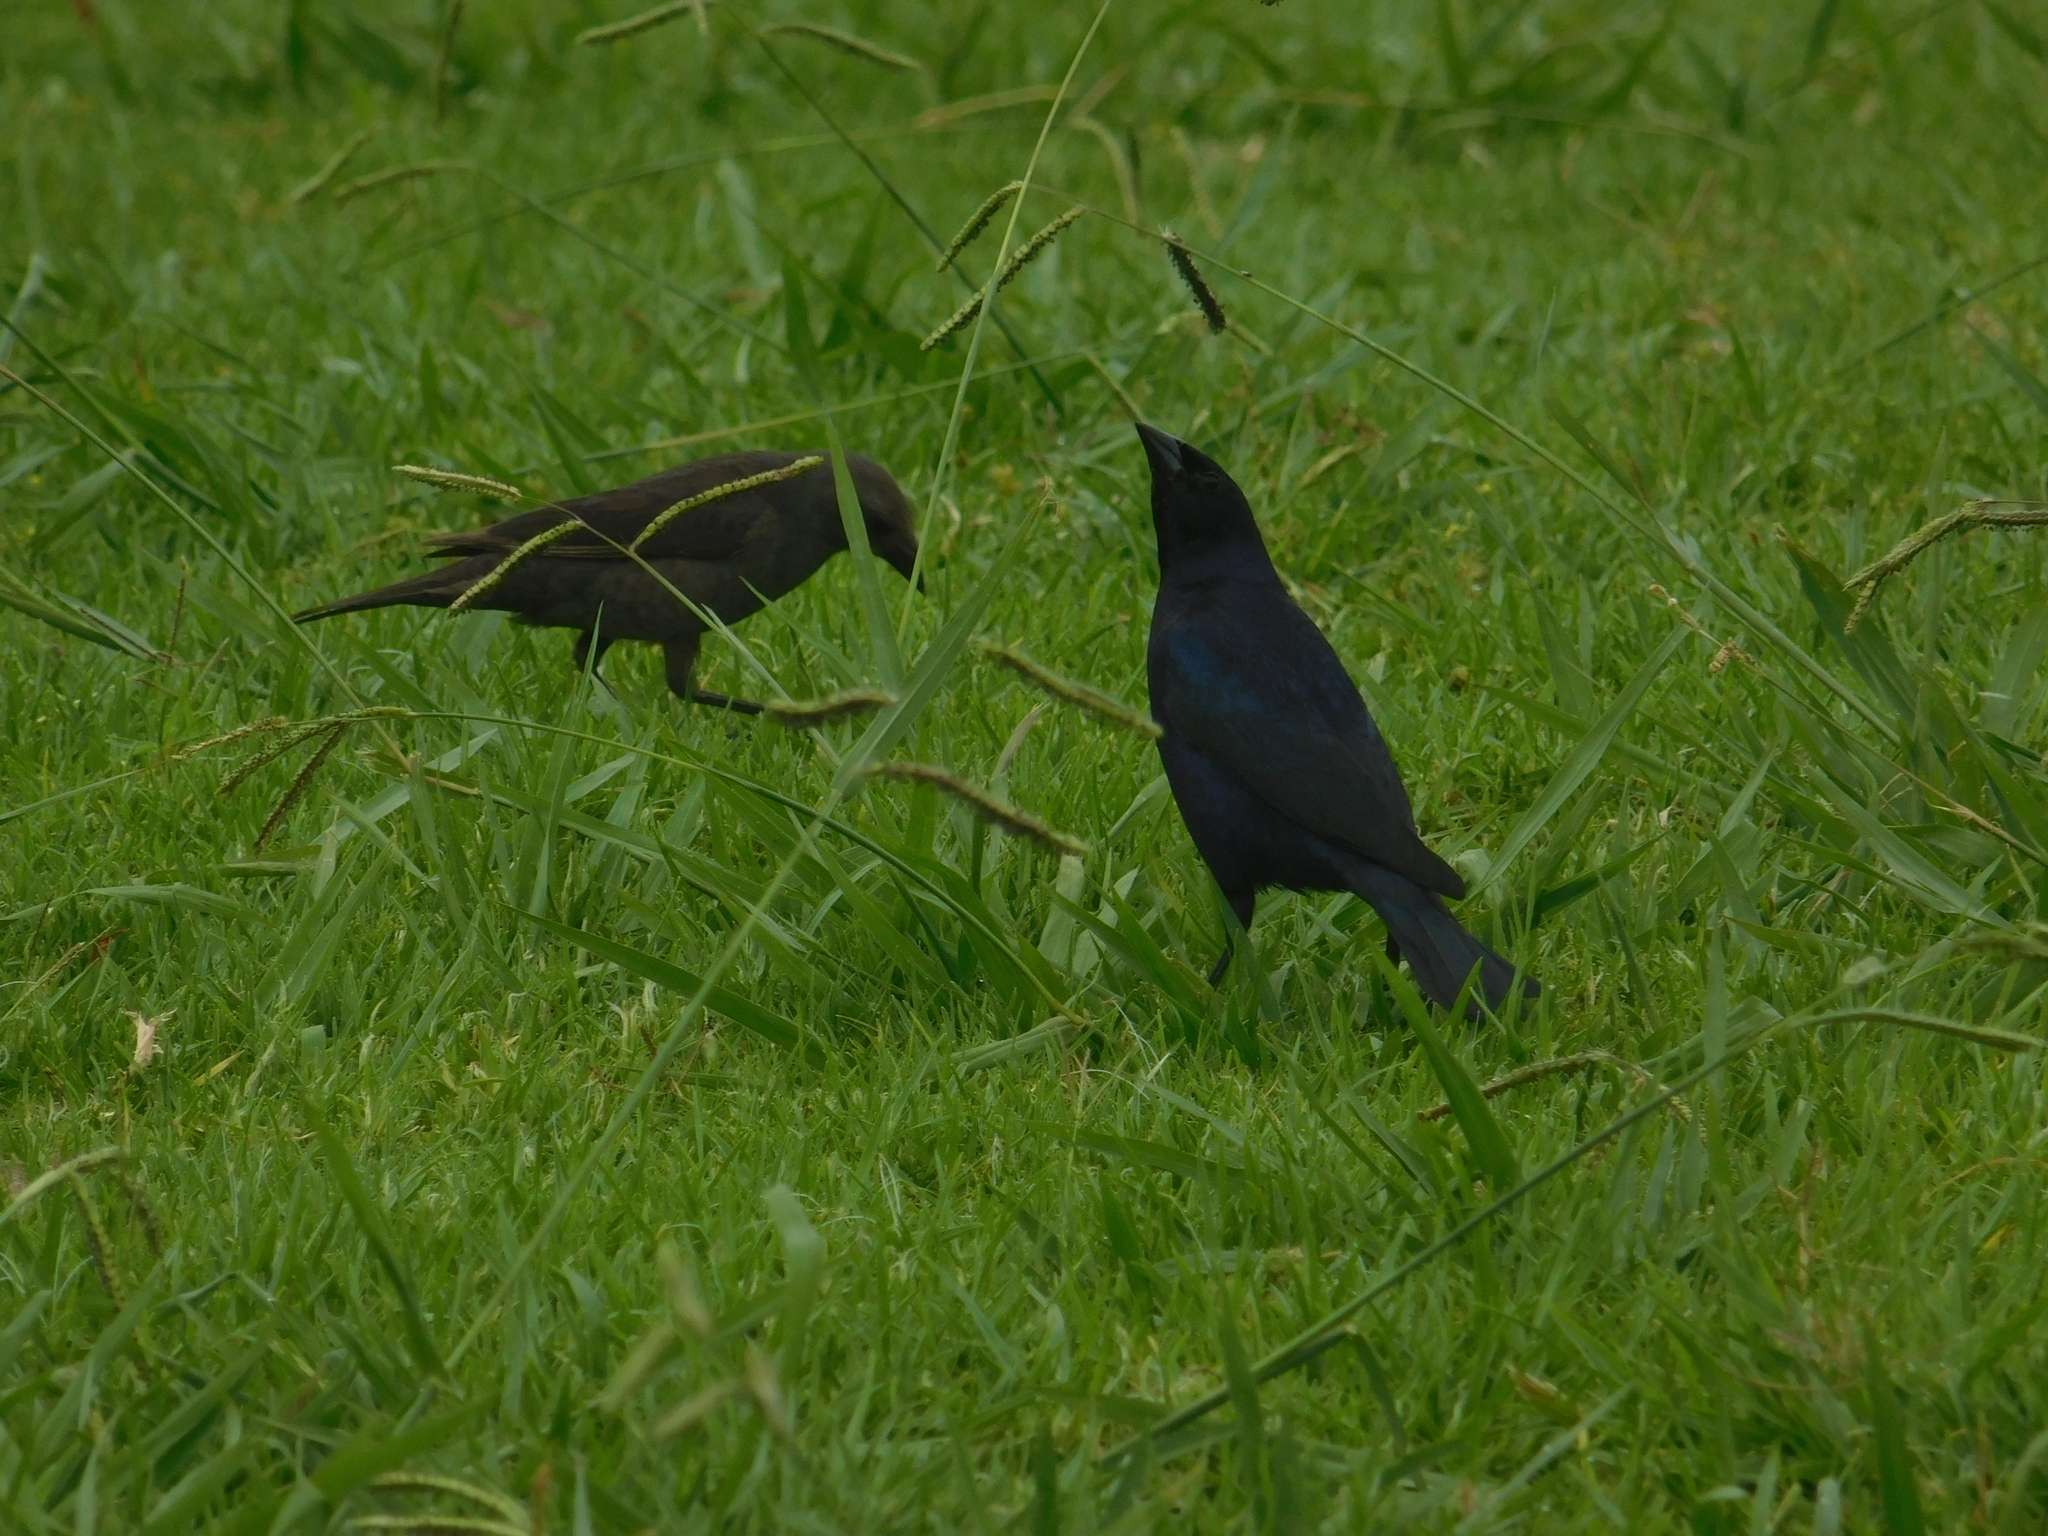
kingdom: Animalia
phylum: Chordata
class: Aves
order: Passeriformes
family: Icteridae
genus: Molothrus
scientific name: Molothrus bonariensis
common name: Shiny cowbird
